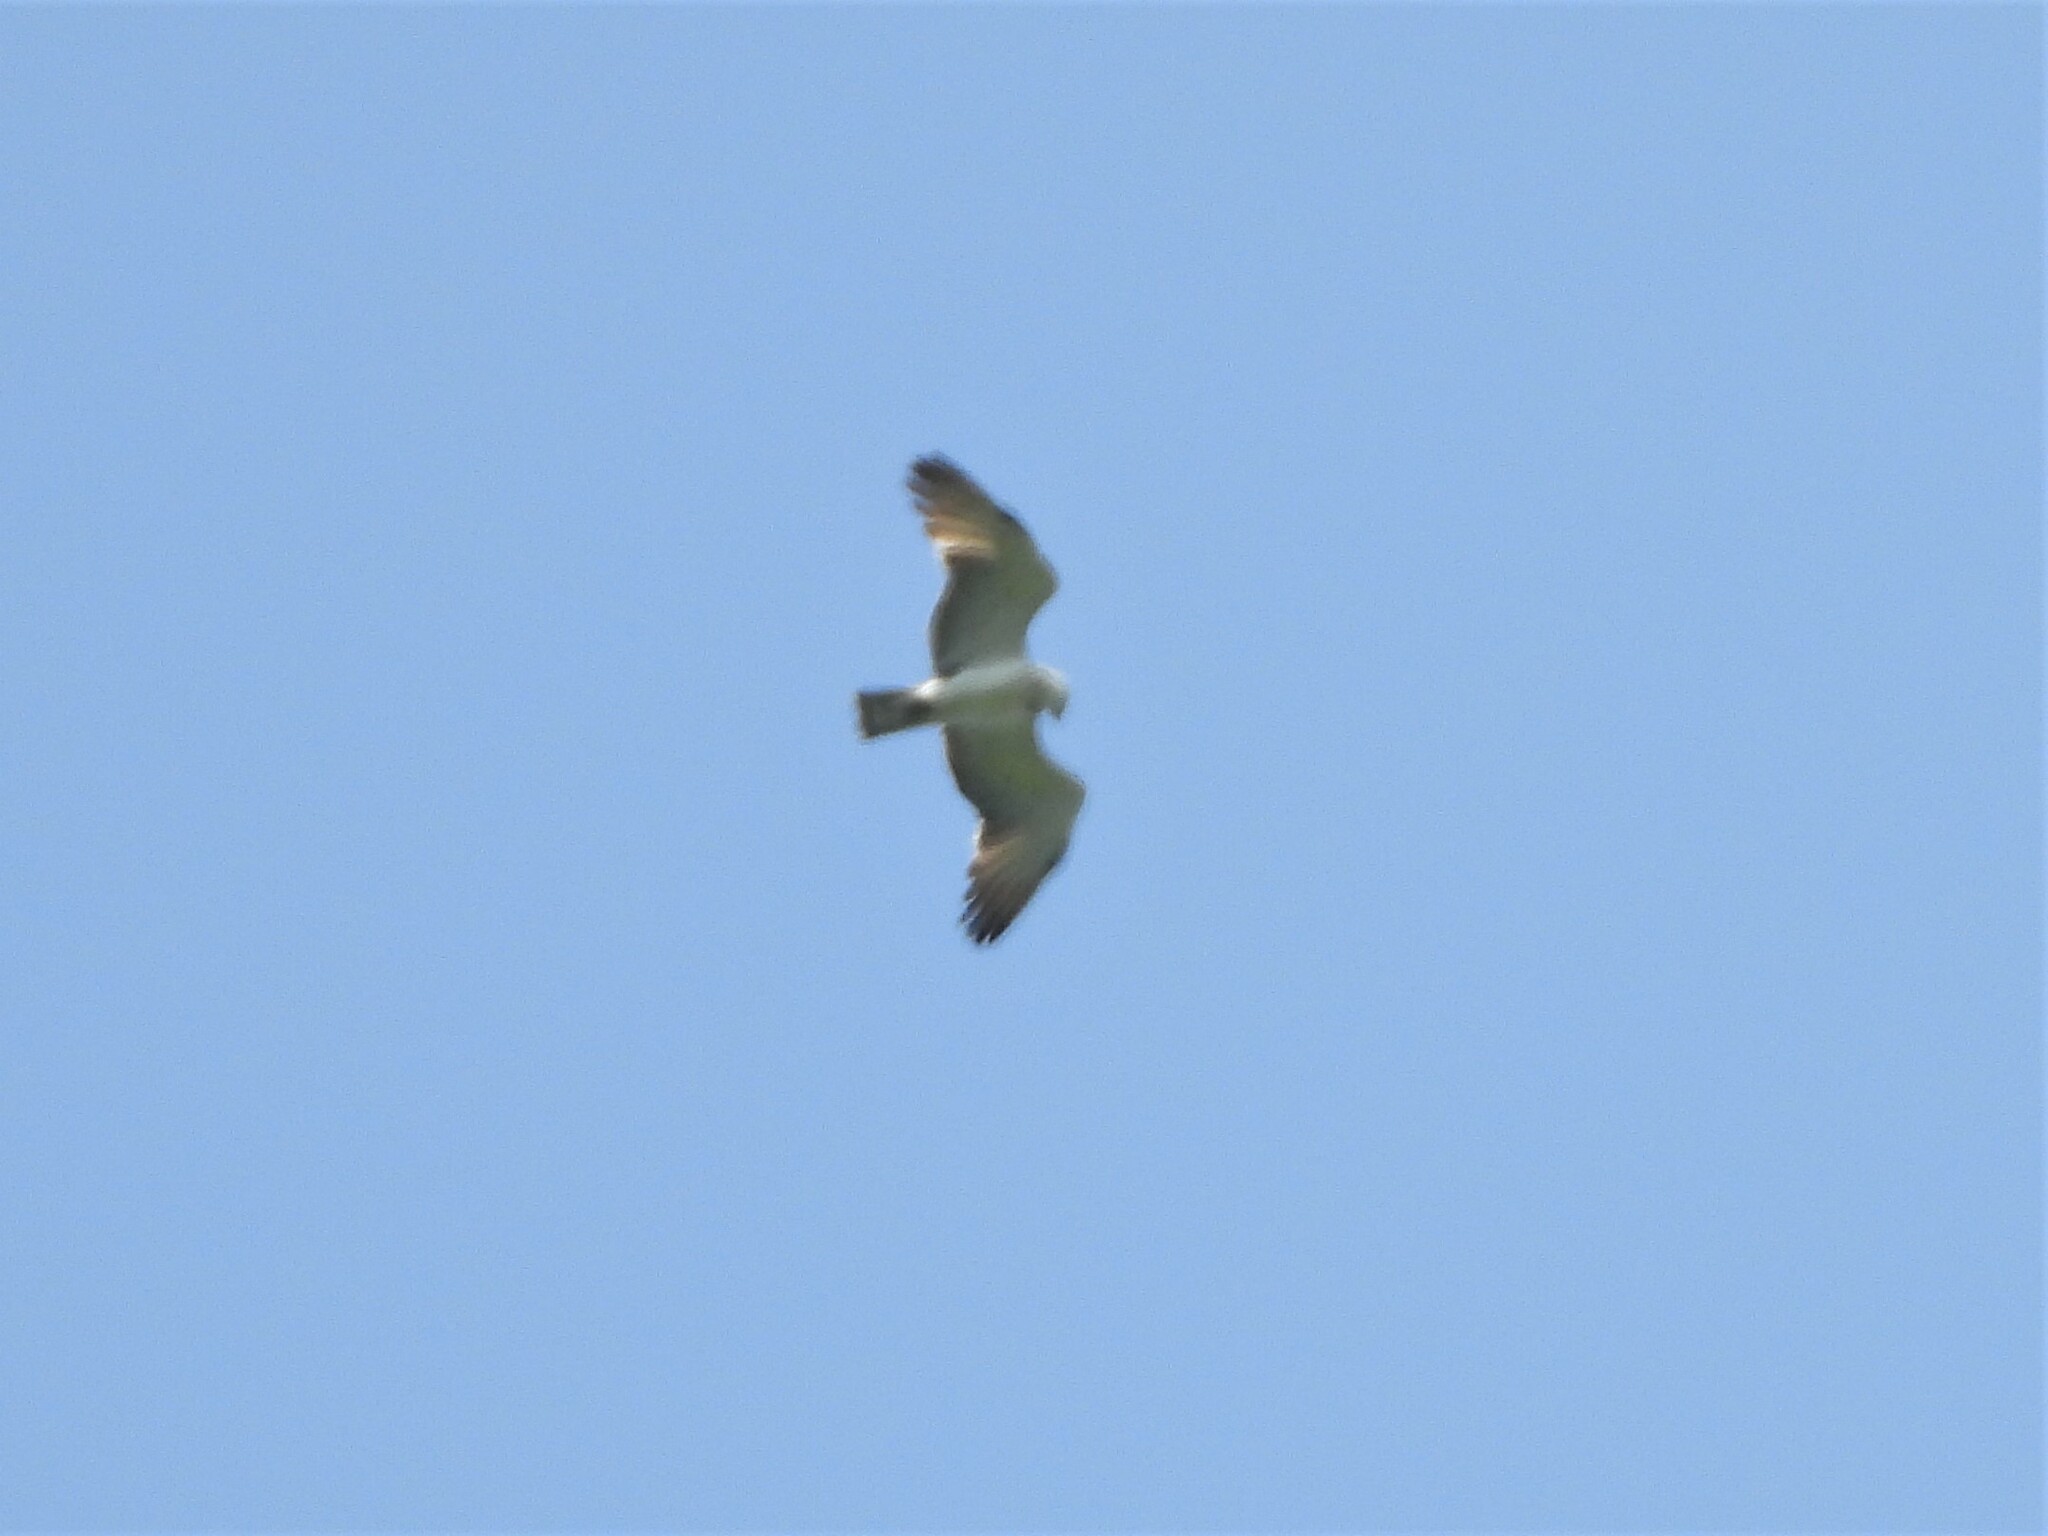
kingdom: Animalia
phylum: Chordata
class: Aves
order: Accipitriformes
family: Accipitridae
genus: Circaetus
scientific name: Circaetus gallicus
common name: Short-toed snake eagle
